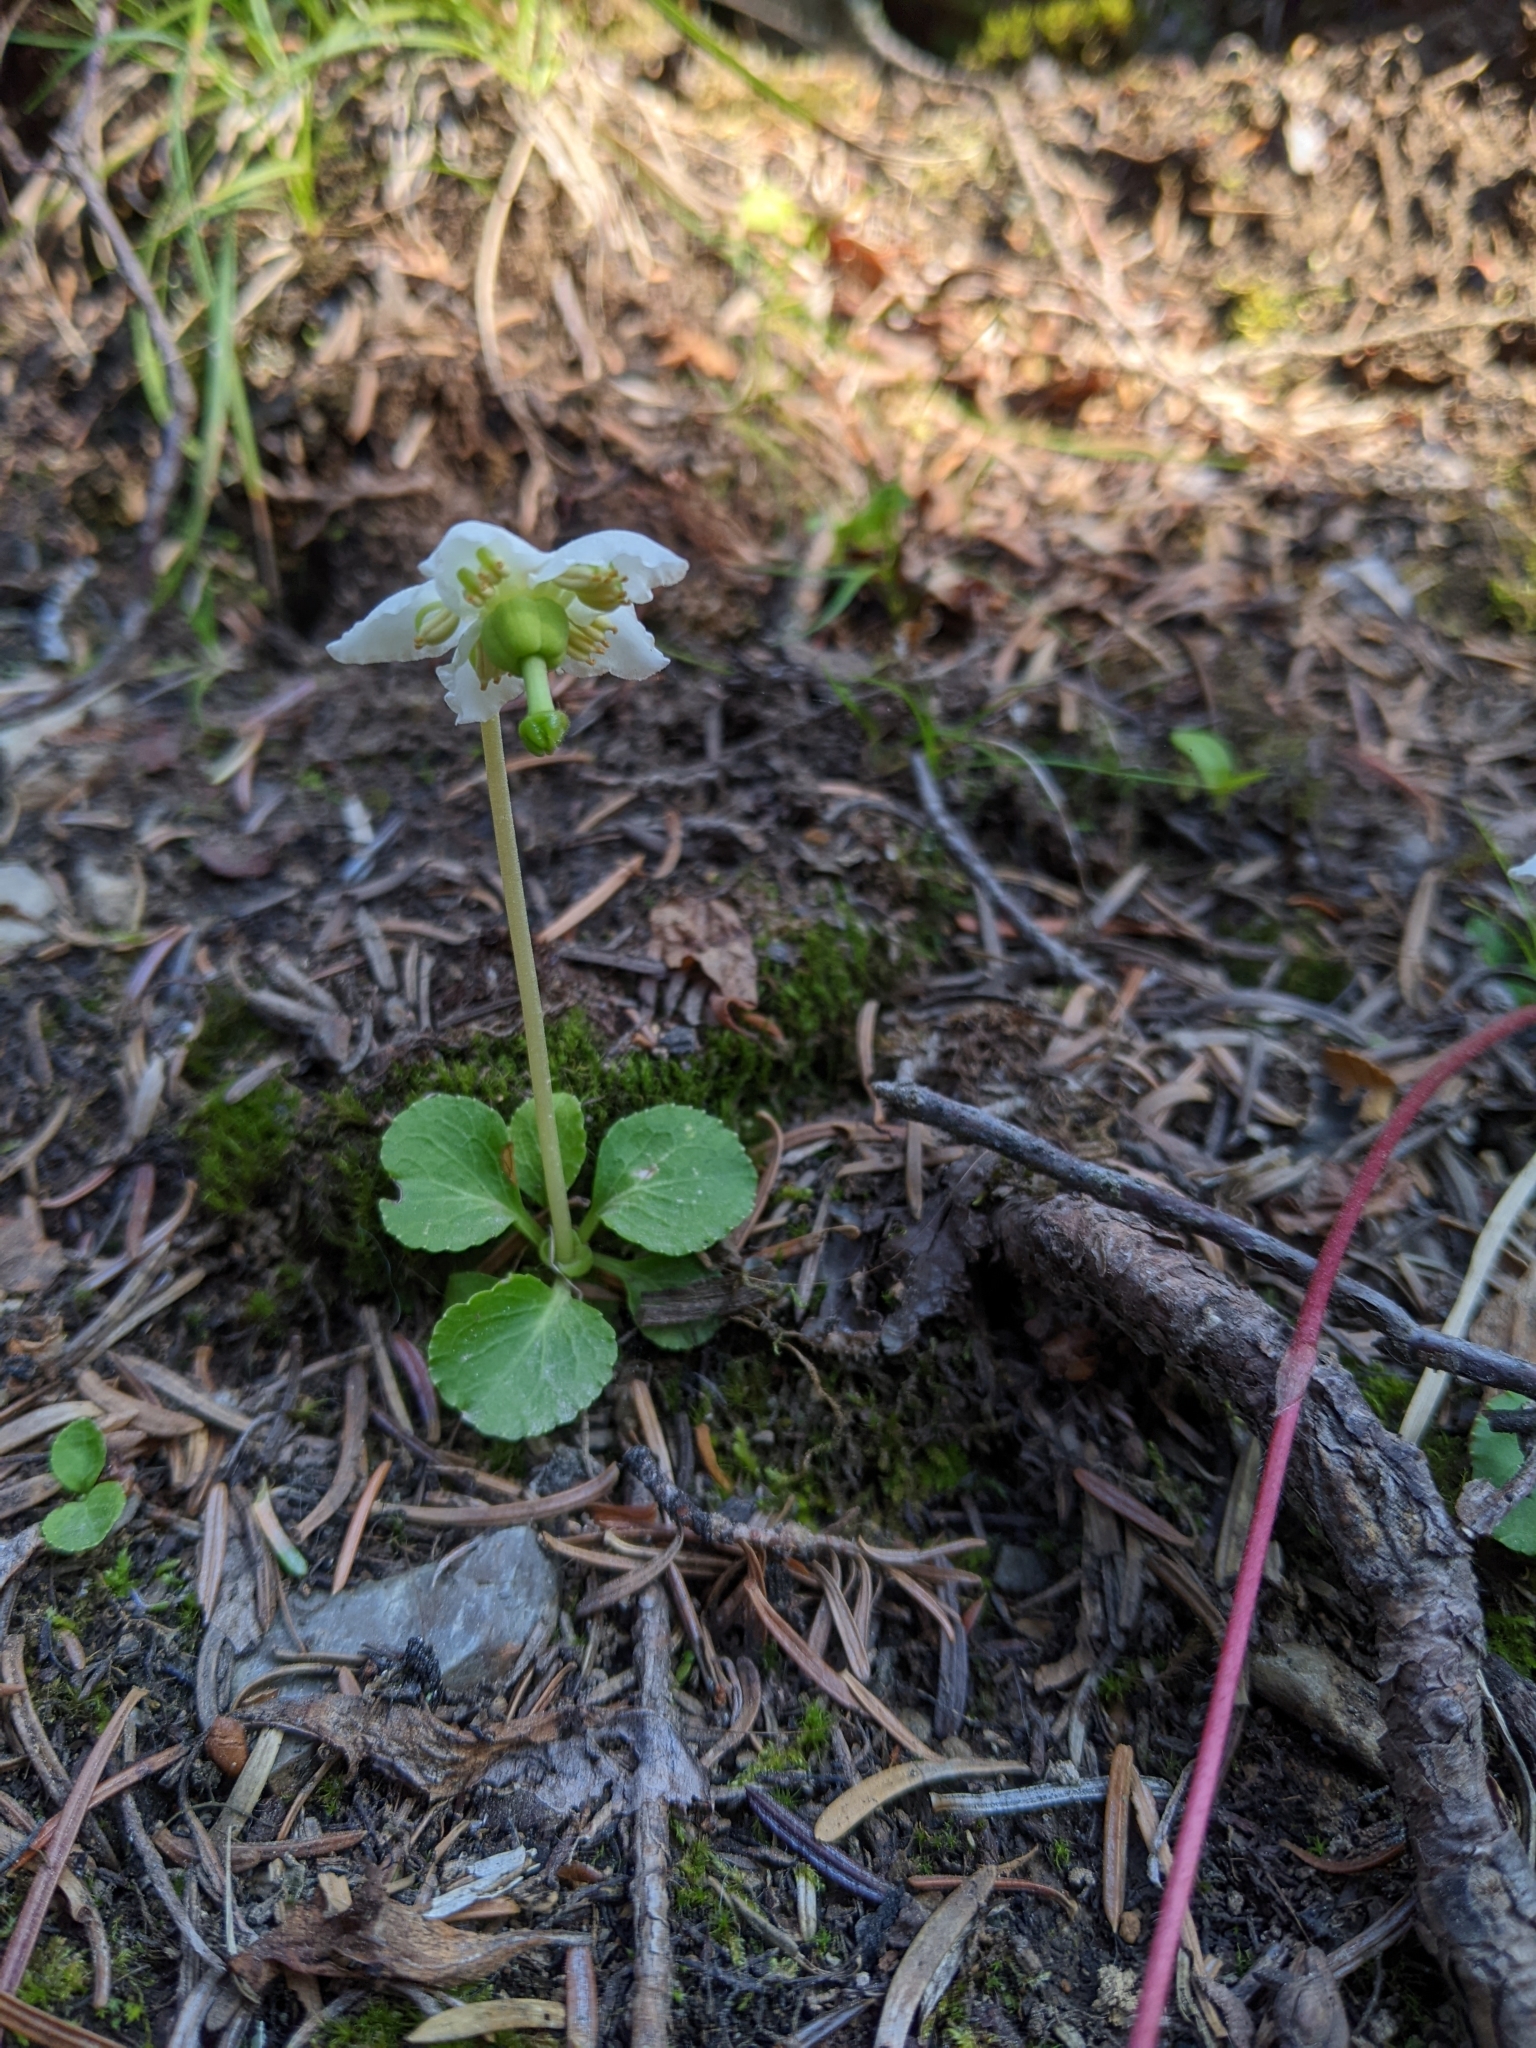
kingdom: Plantae
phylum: Tracheophyta
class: Magnoliopsida
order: Ericales
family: Ericaceae
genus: Moneses
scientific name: Moneses uniflora
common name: One-flowered wintergreen
